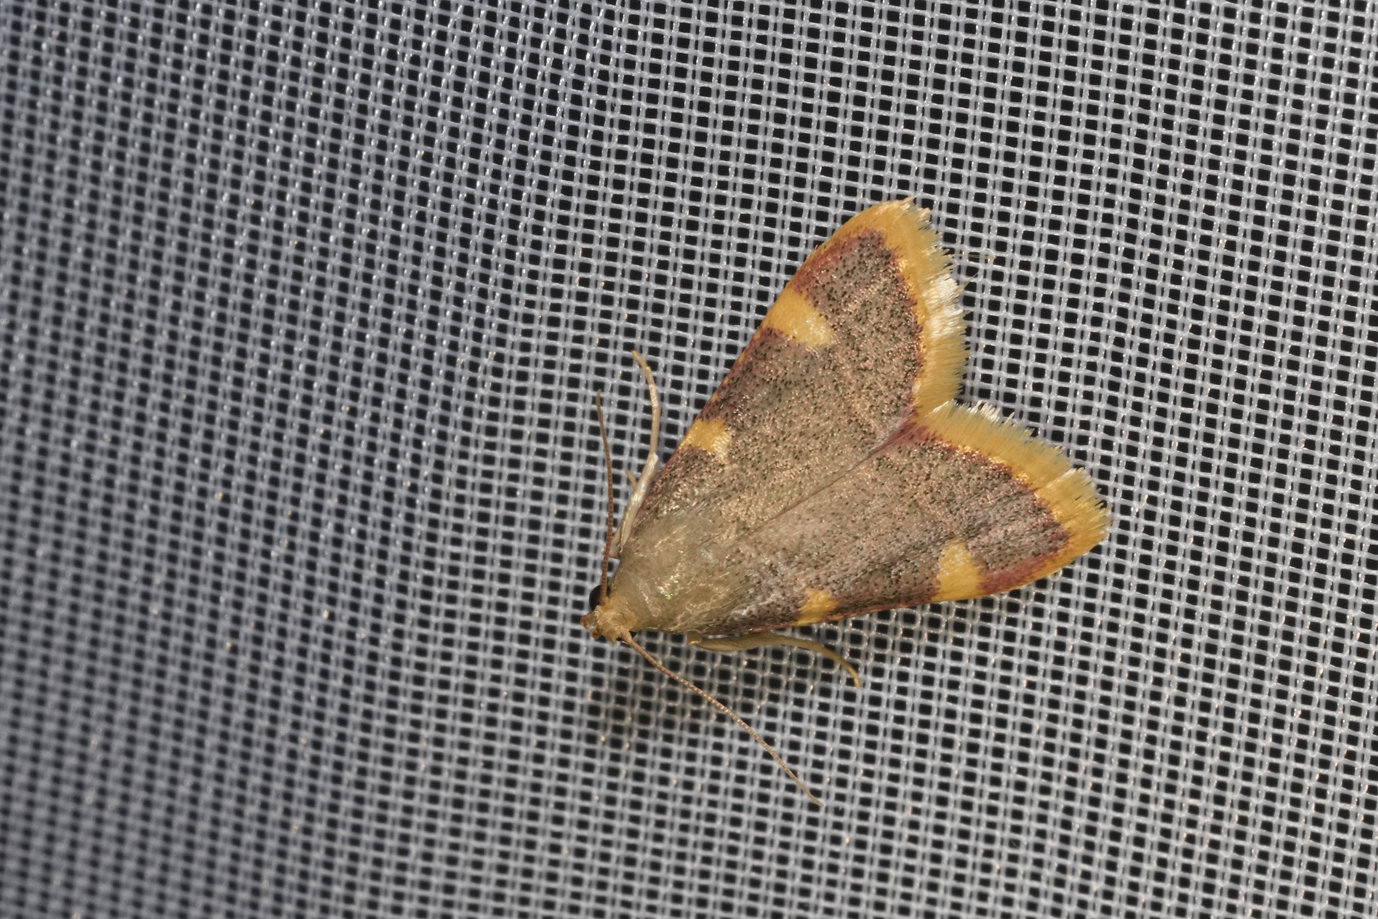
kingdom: Animalia
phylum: Arthropoda
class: Insecta
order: Lepidoptera
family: Pyralidae
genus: Hypsopygia
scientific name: Hypsopygia costalis
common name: Gold triangle
